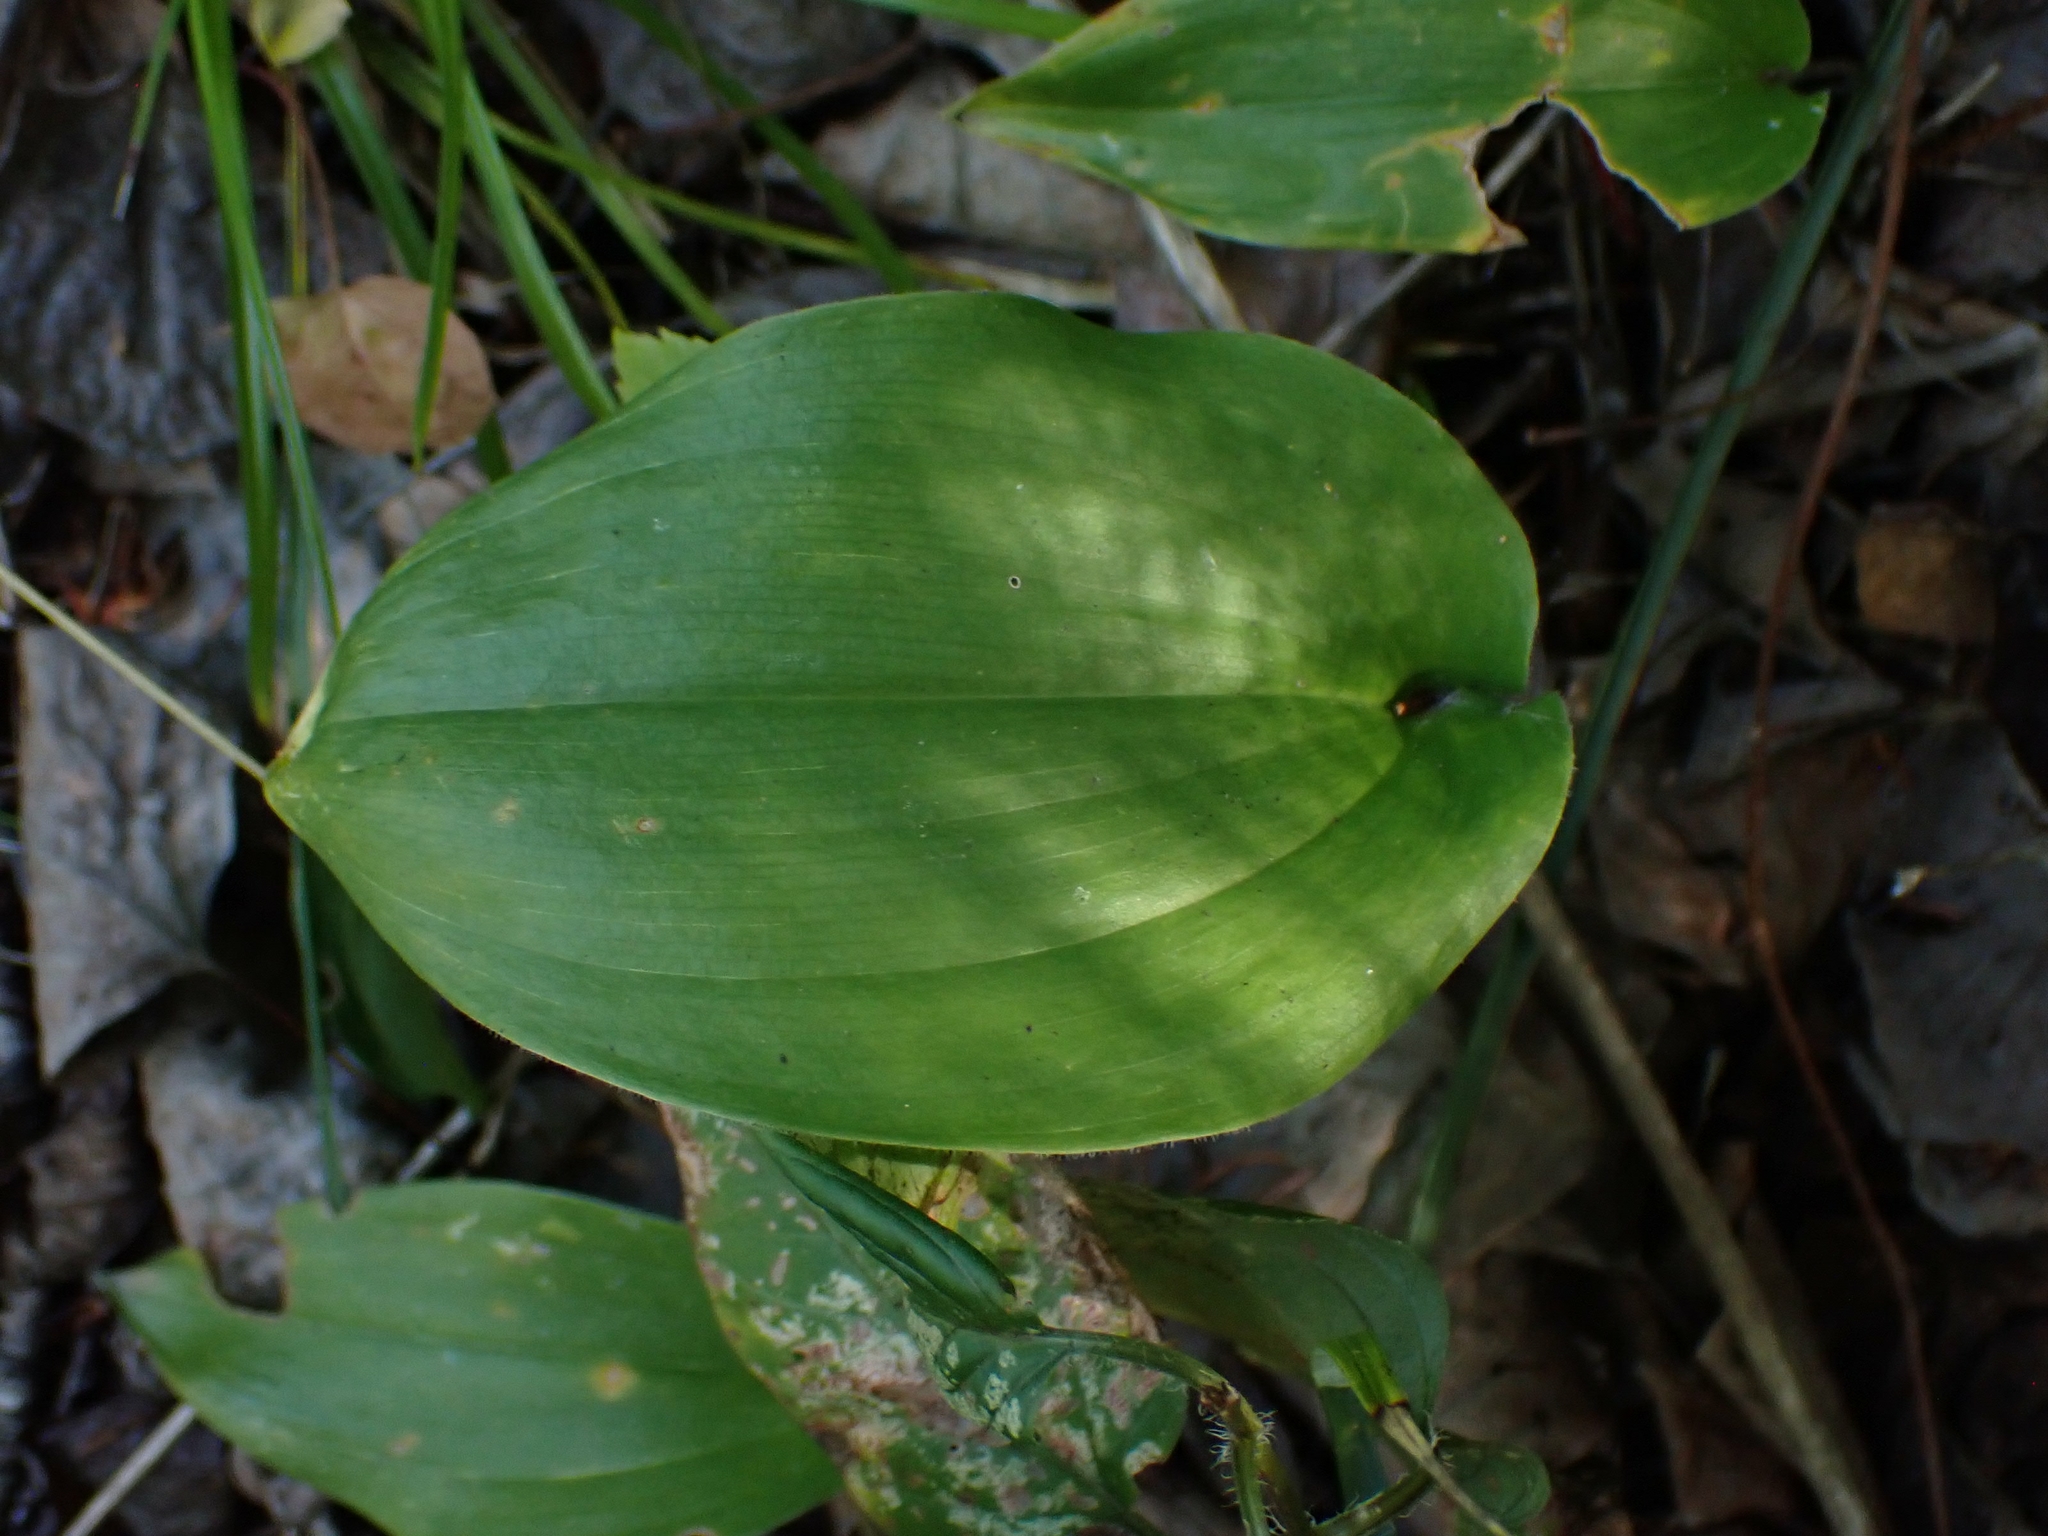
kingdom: Plantae
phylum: Tracheophyta
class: Liliopsida
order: Asparagales
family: Asparagaceae
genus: Maianthemum
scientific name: Maianthemum canadense
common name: False lily-of-the-valley
